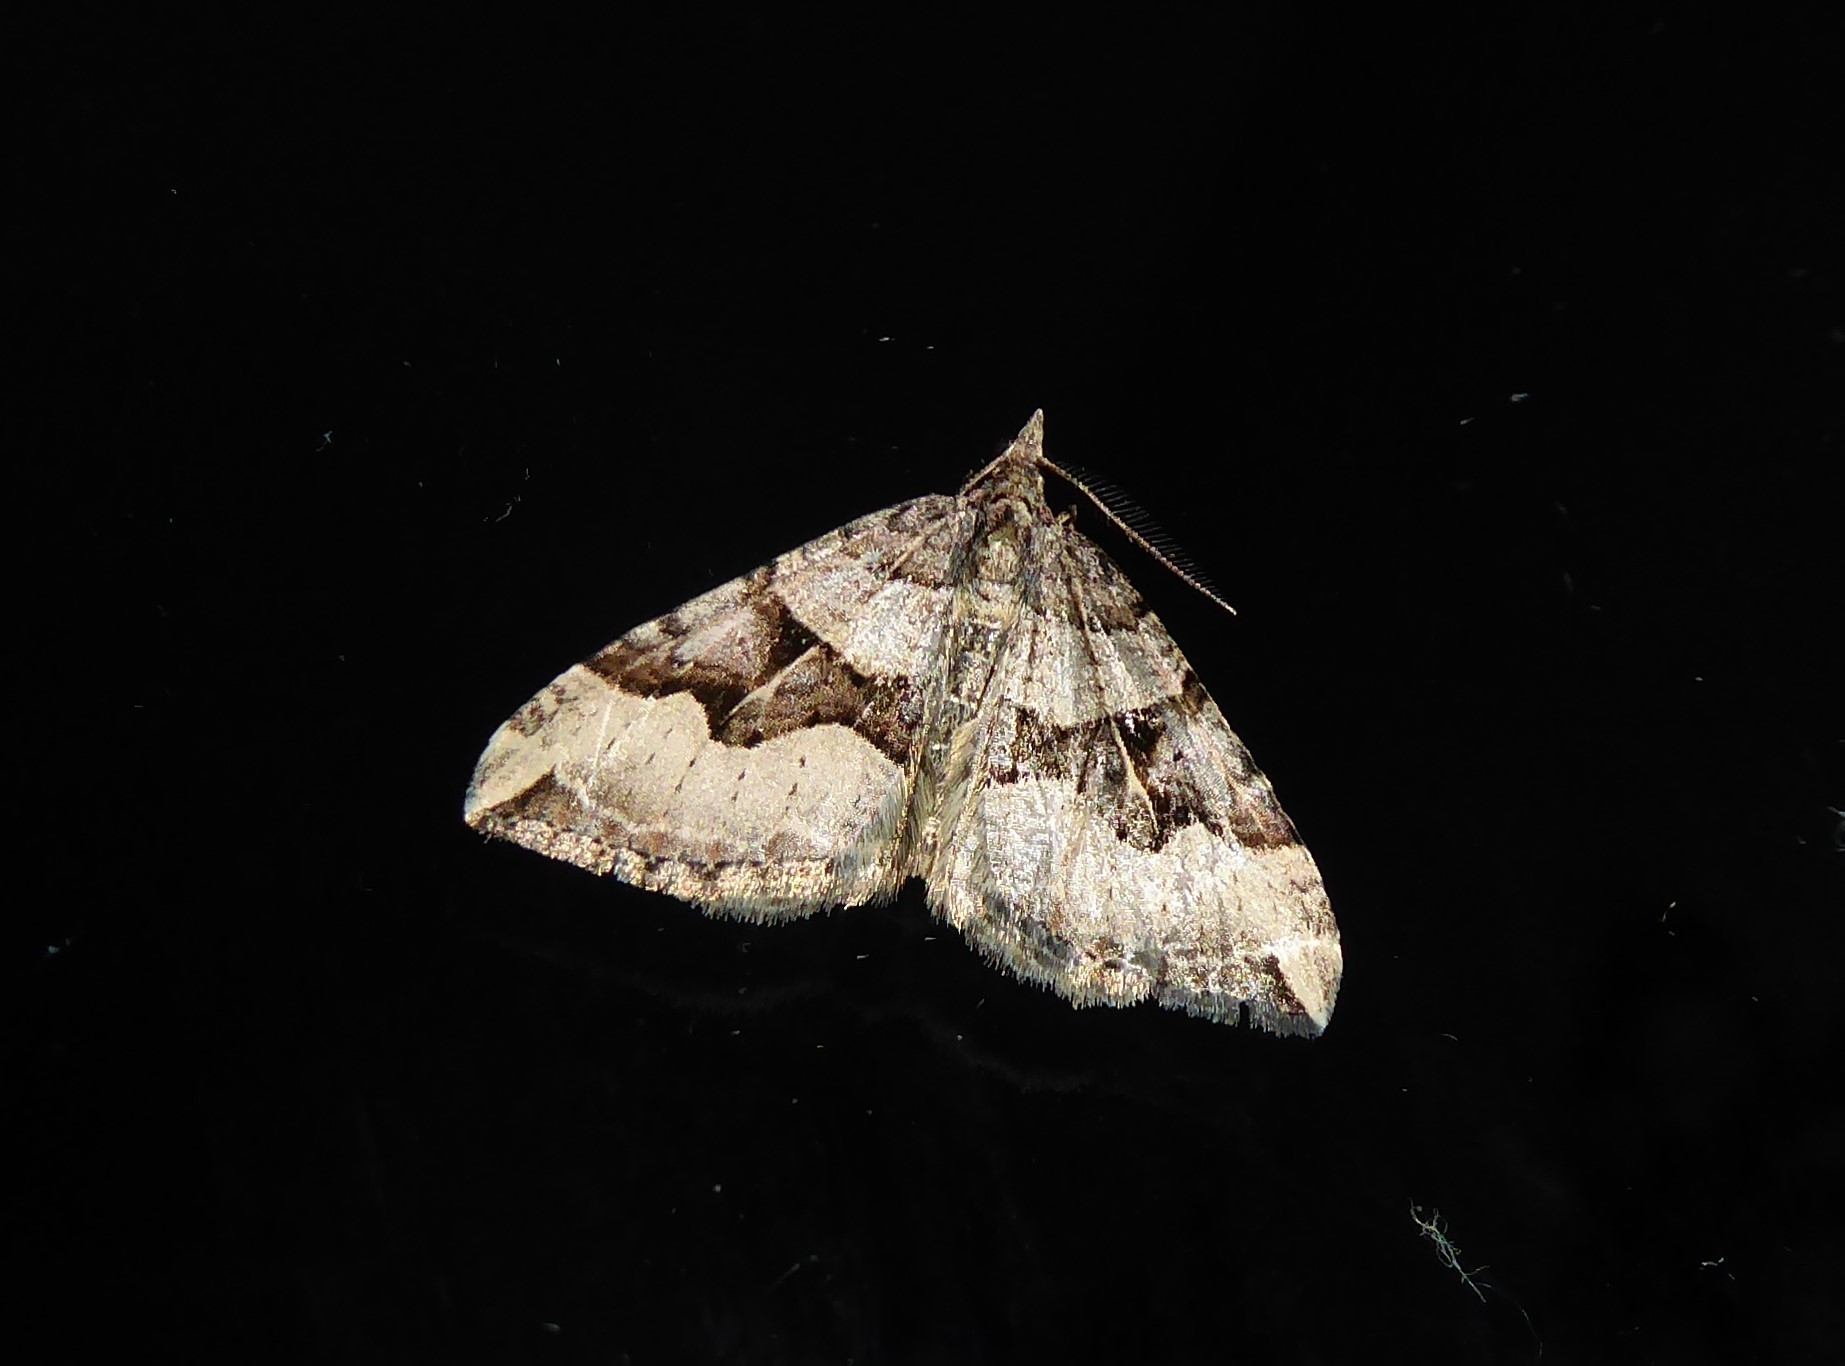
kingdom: Animalia
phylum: Arthropoda
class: Insecta
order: Lepidoptera
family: Geometridae
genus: Xanthorhoe
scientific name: Xanthorhoe semifissata
